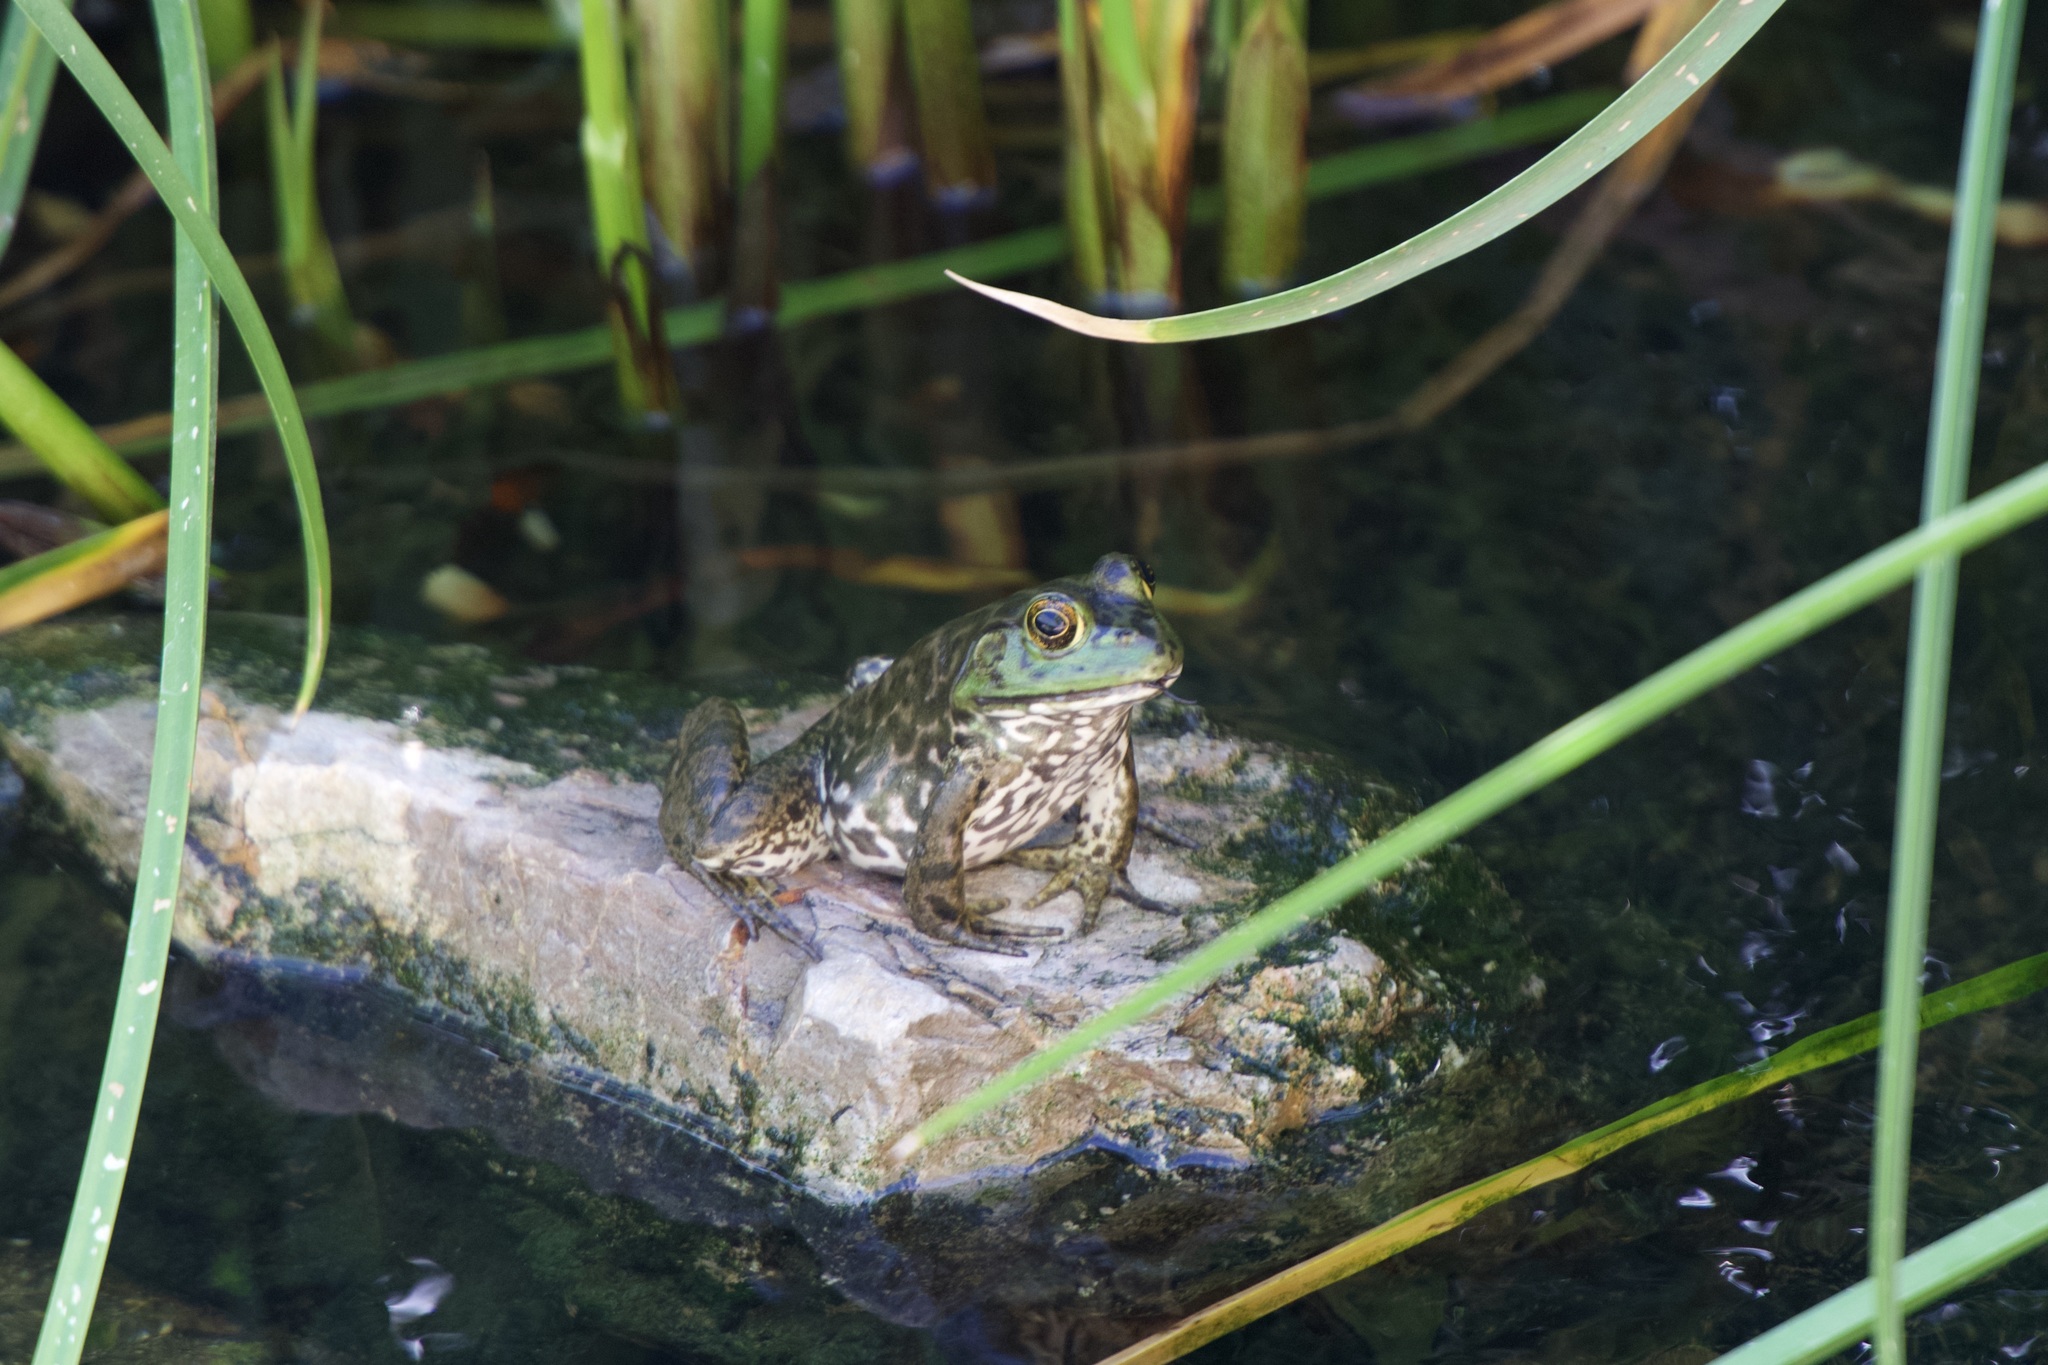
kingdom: Animalia
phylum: Chordata
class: Amphibia
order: Anura
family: Ranidae
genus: Lithobates
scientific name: Lithobates catesbeianus
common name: American bullfrog
